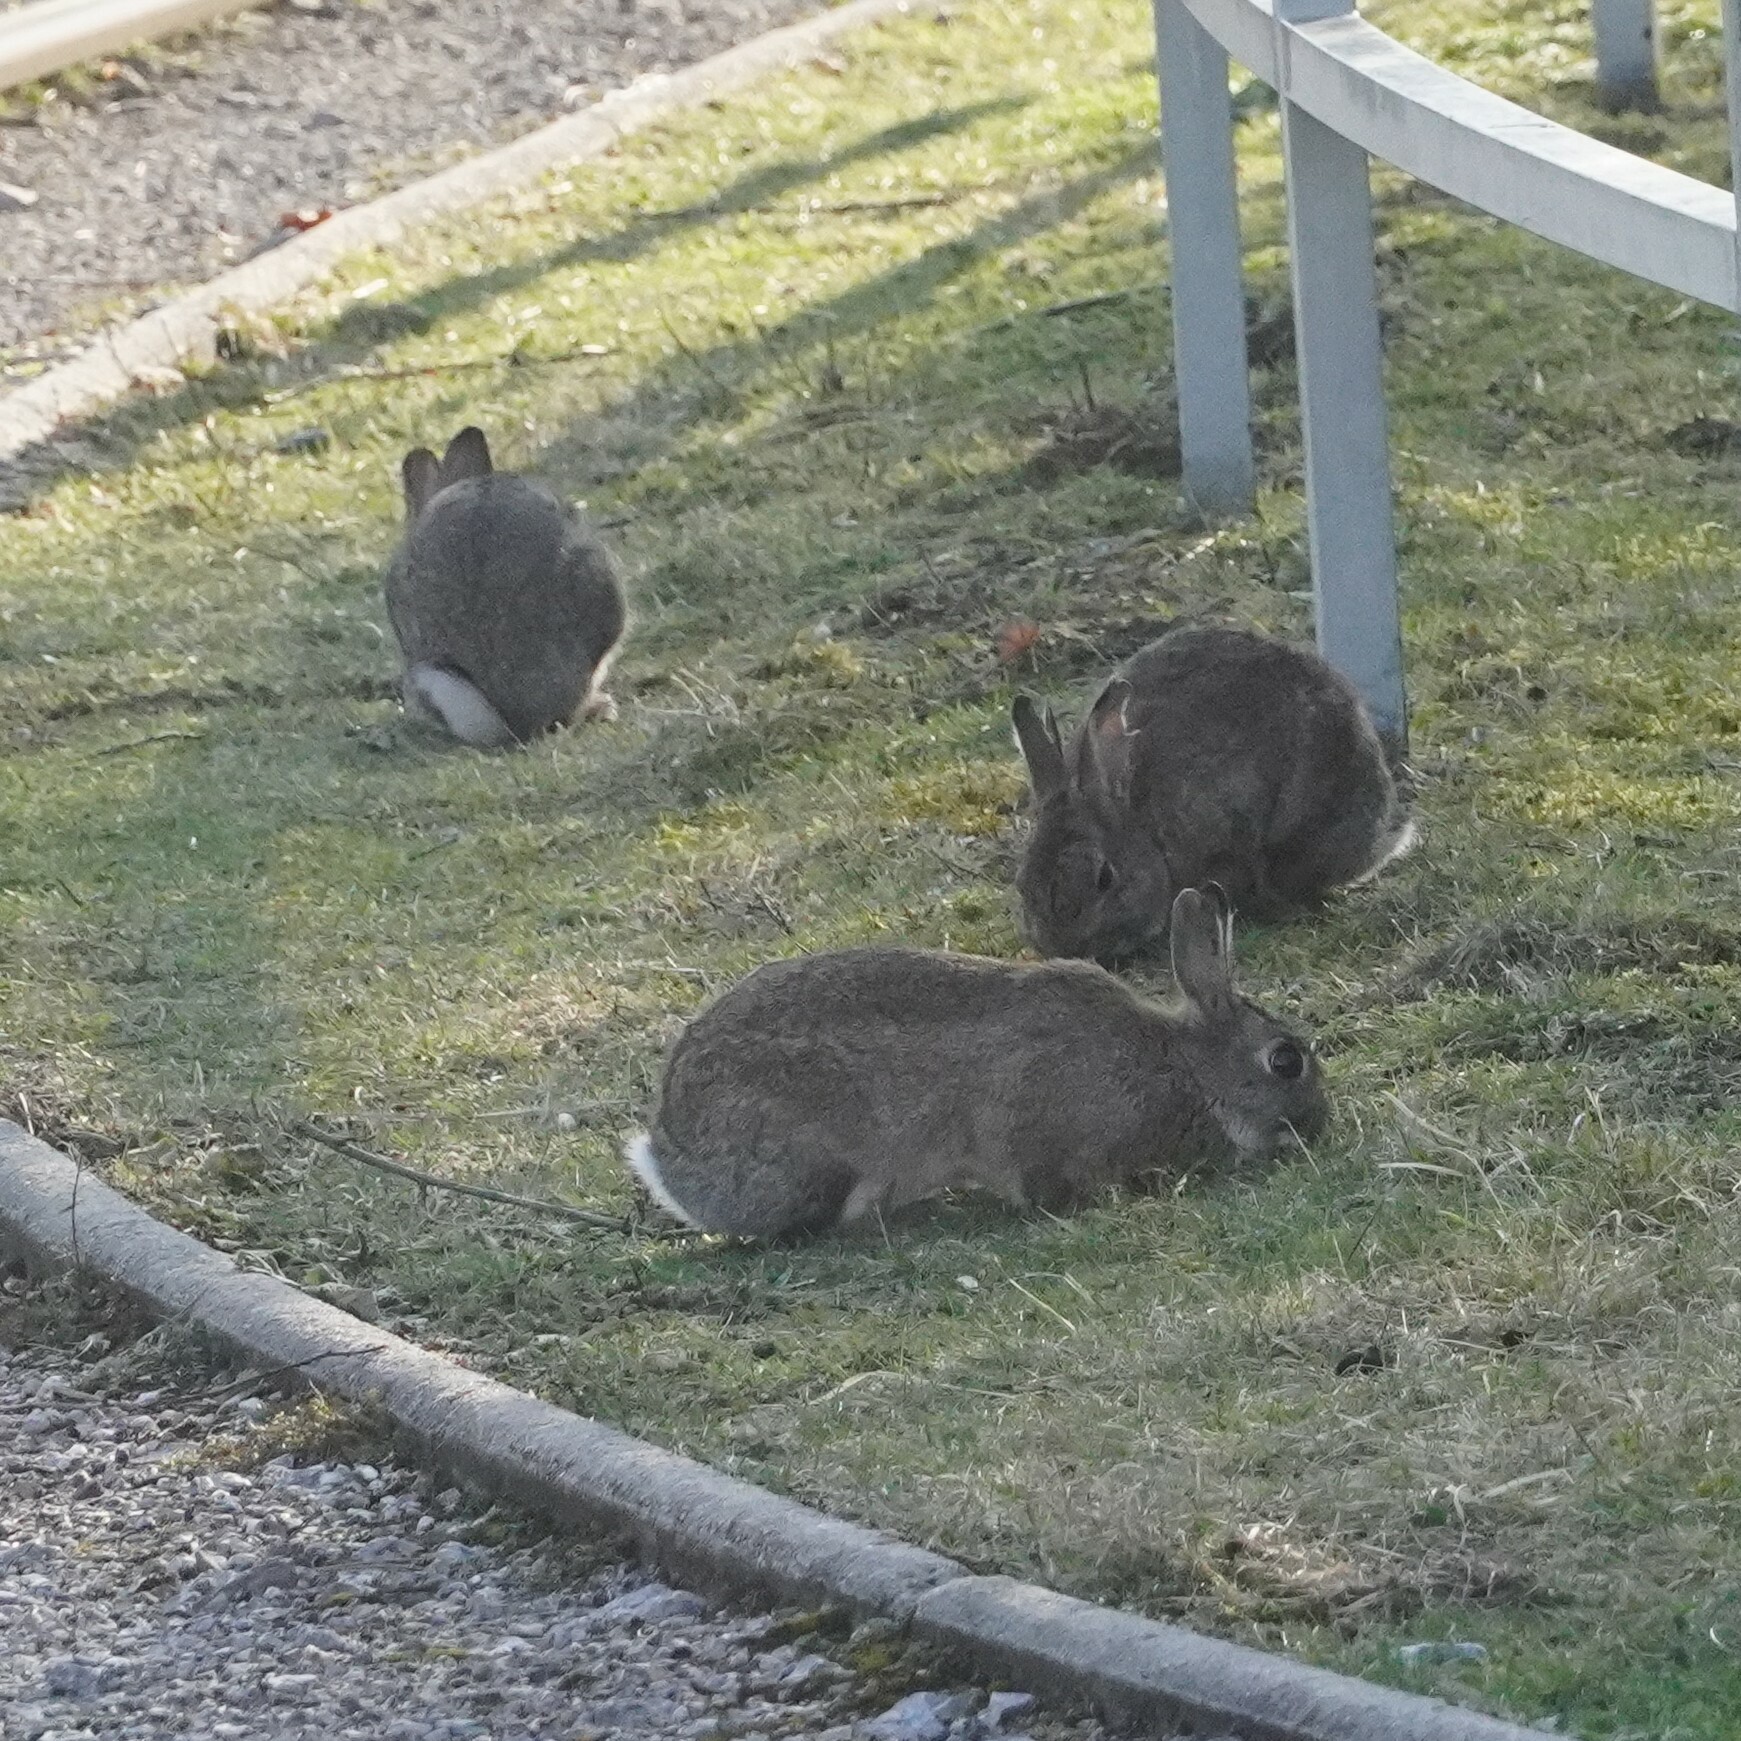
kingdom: Animalia
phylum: Chordata
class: Mammalia
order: Lagomorpha
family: Leporidae
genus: Oryctolagus
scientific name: Oryctolagus cuniculus
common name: European rabbit
